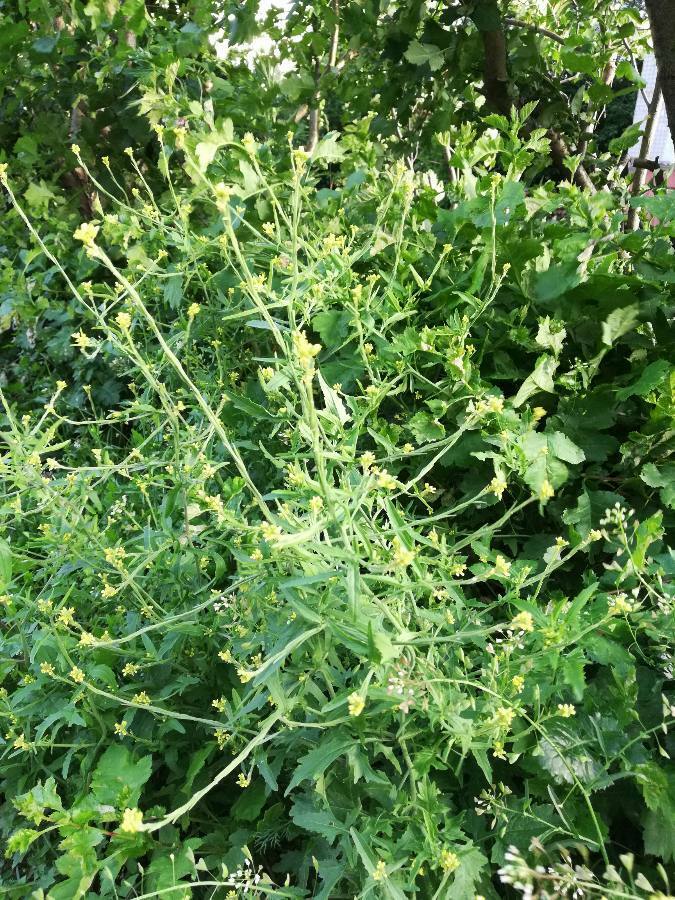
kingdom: Plantae
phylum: Tracheophyta
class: Magnoliopsida
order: Brassicales
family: Brassicaceae
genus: Sisymbrium
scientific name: Sisymbrium officinale
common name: Hedge mustard
